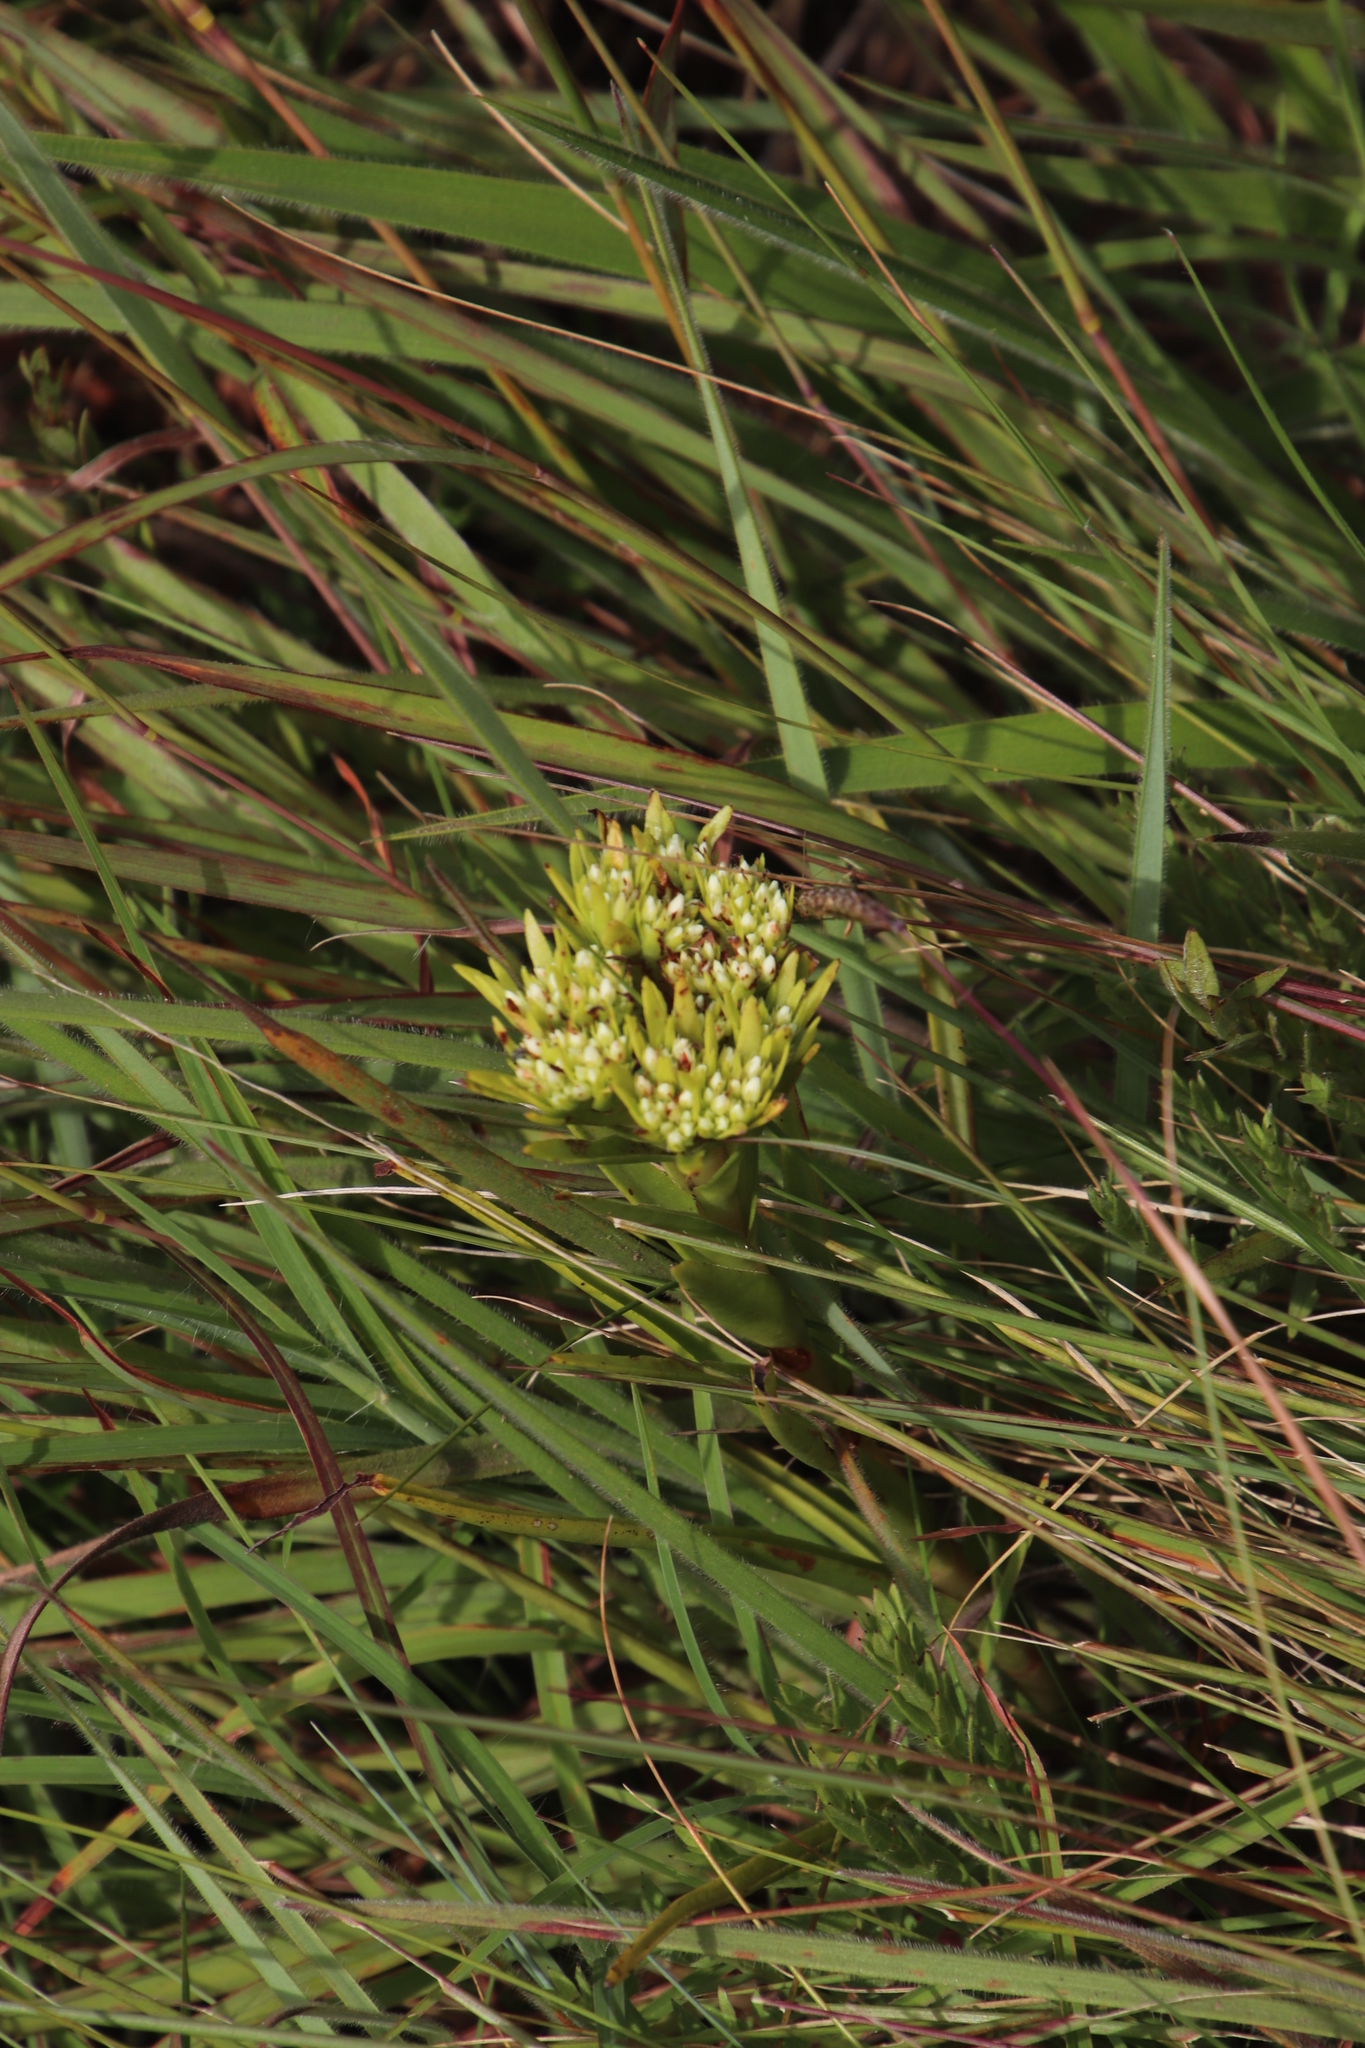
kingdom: Plantae
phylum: Tracheophyta
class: Magnoliopsida
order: Saxifragales
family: Crassulaceae
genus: Crassula
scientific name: Crassula crenulata
